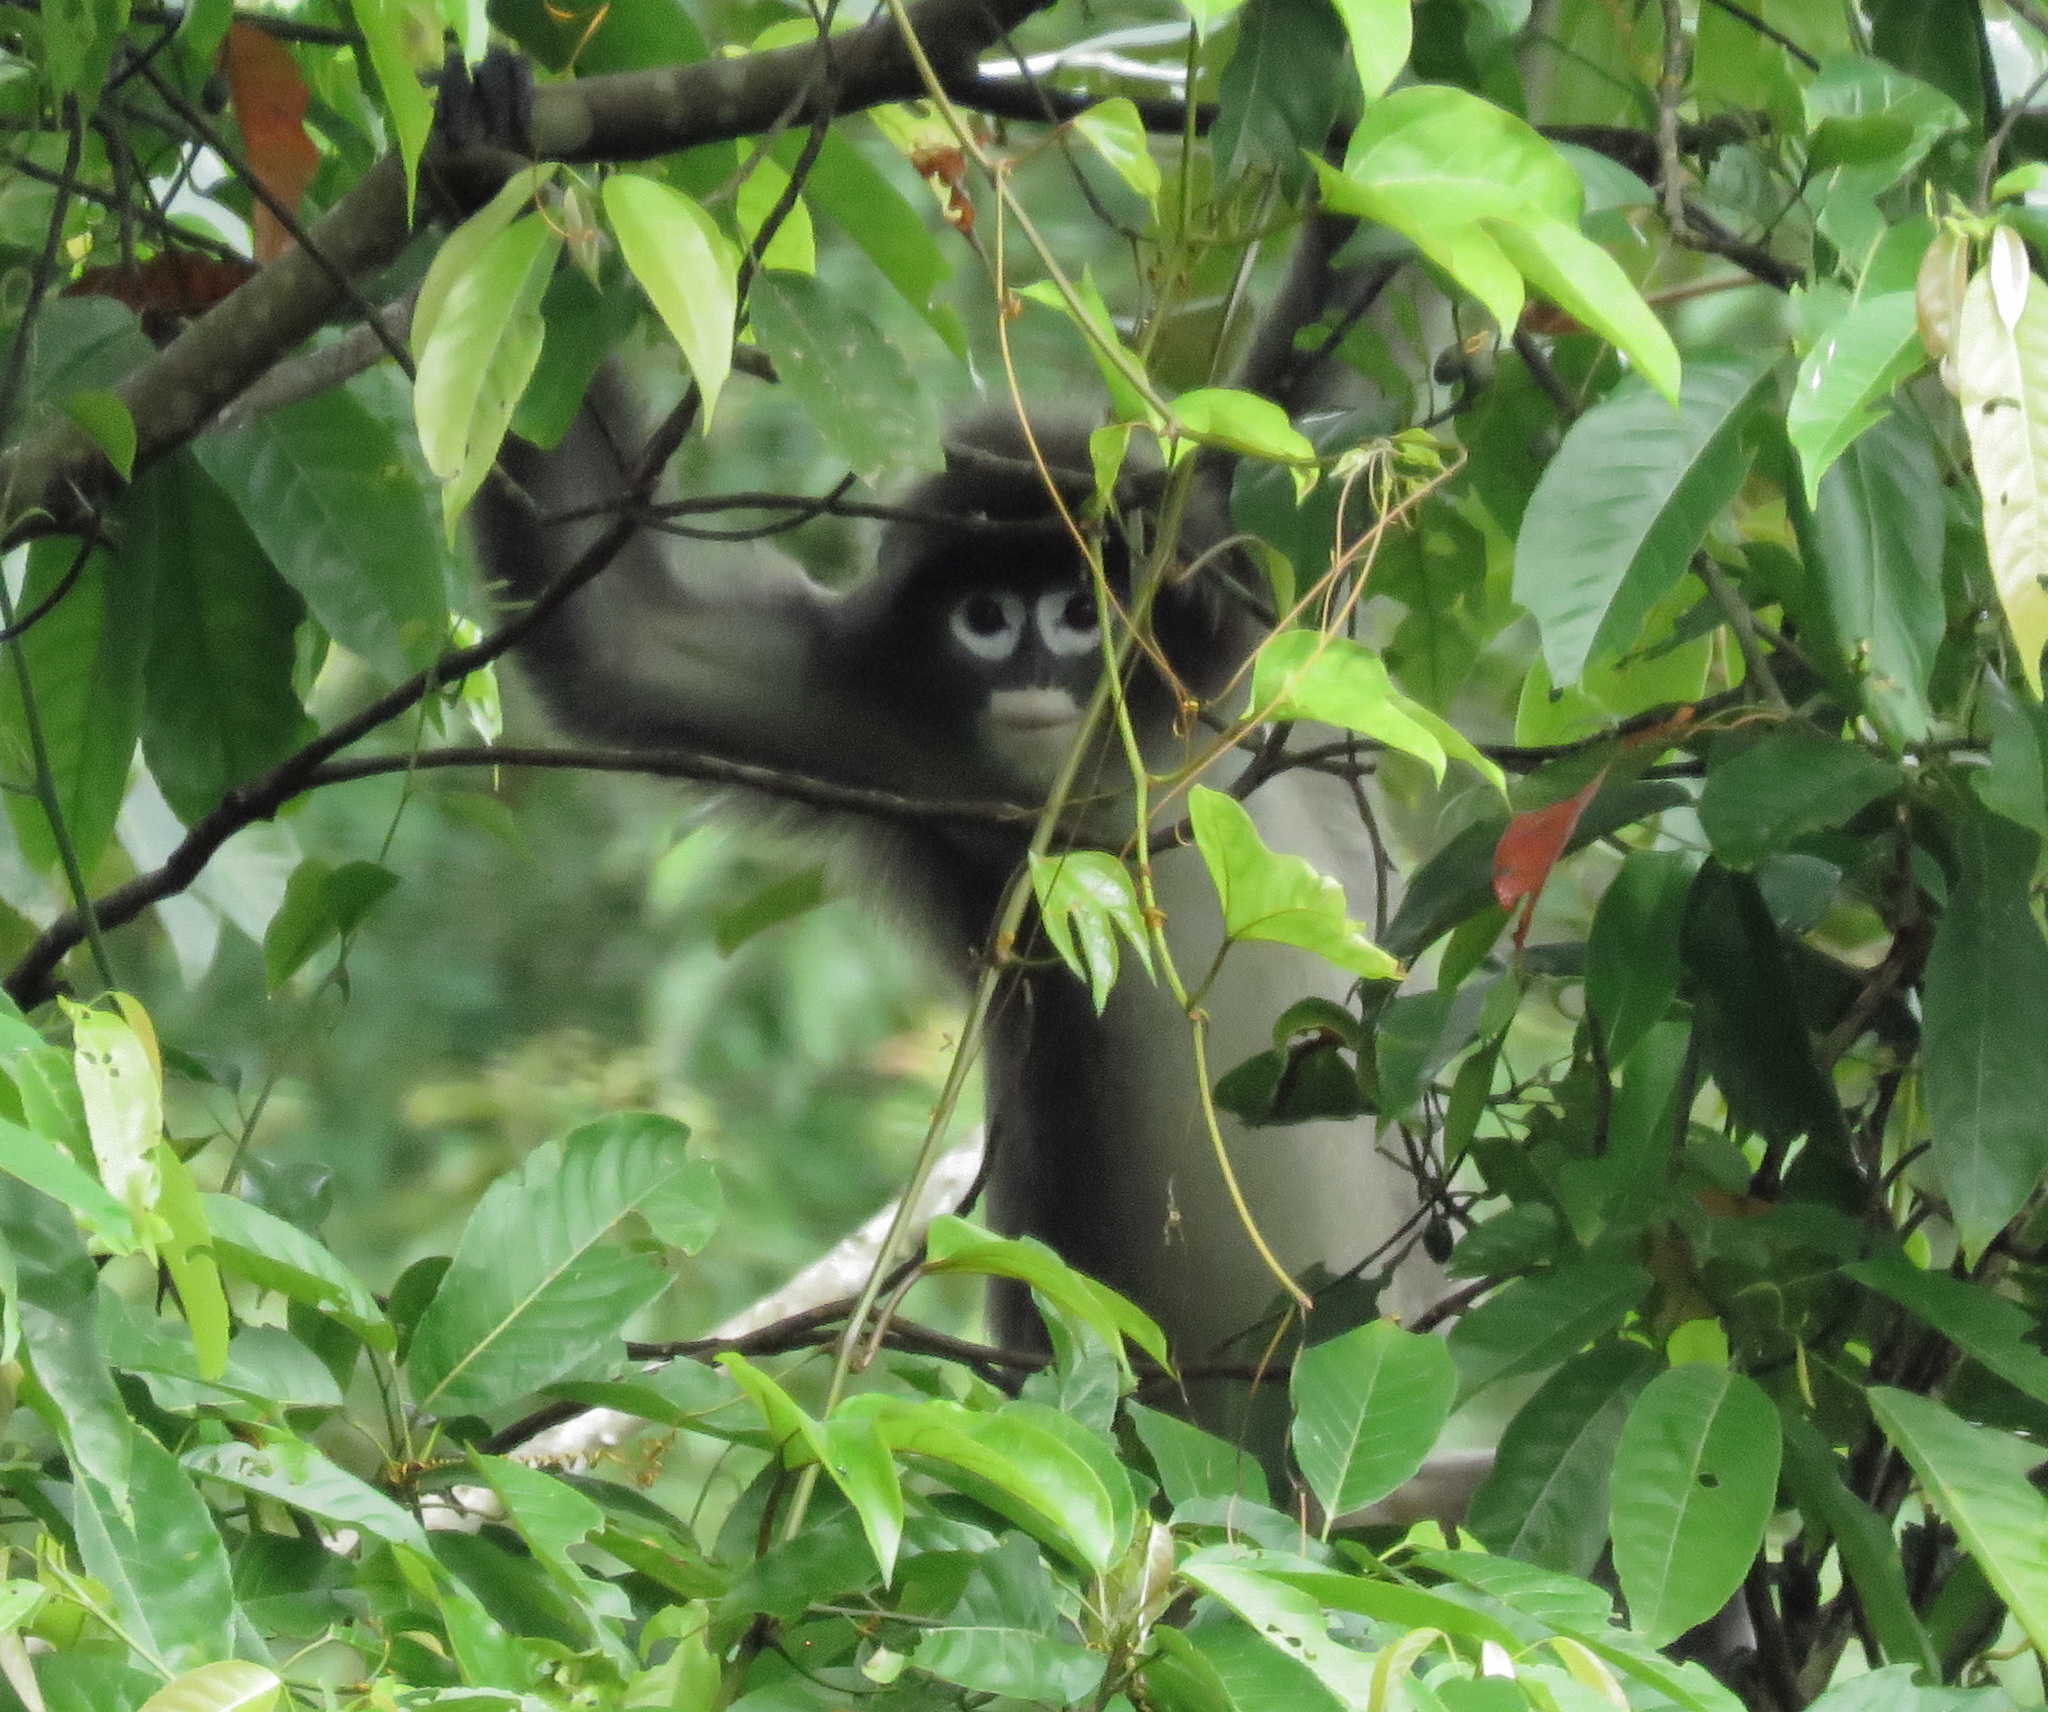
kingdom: Animalia
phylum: Chordata
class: Mammalia
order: Primates
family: Cercopithecidae
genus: Trachypithecus
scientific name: Trachypithecus phayrei
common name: Phayre's leaf monkey
